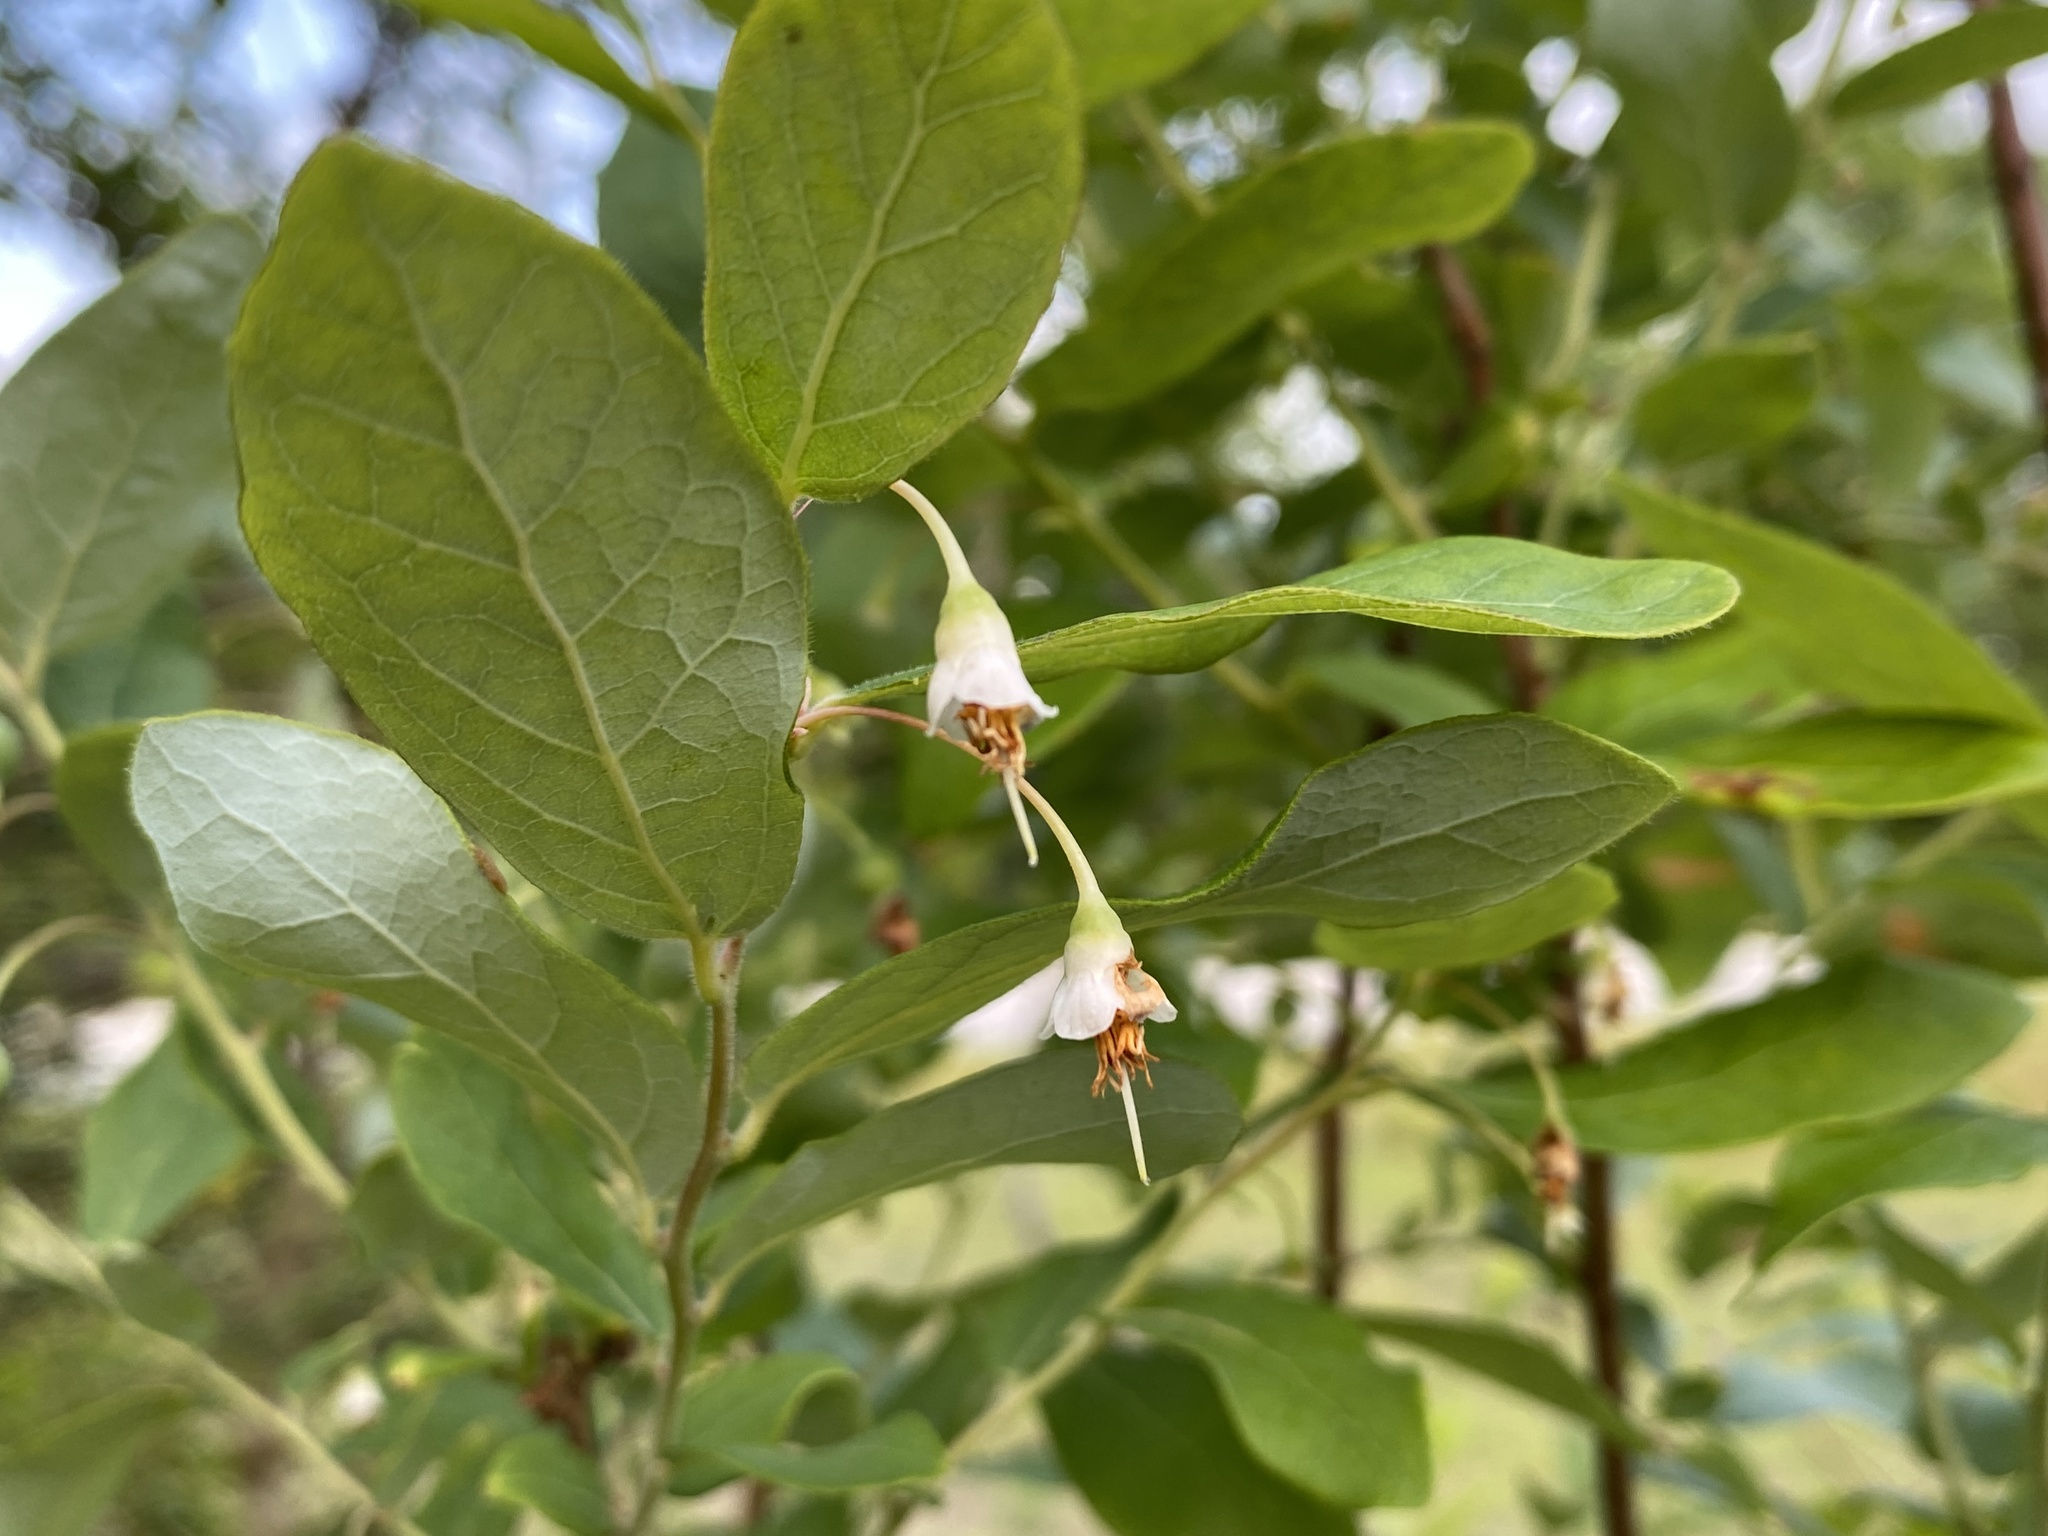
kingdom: Plantae
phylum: Tracheophyta
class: Magnoliopsida
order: Ericales
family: Ericaceae
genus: Vaccinium
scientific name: Vaccinium stamineum
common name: Deerberry
